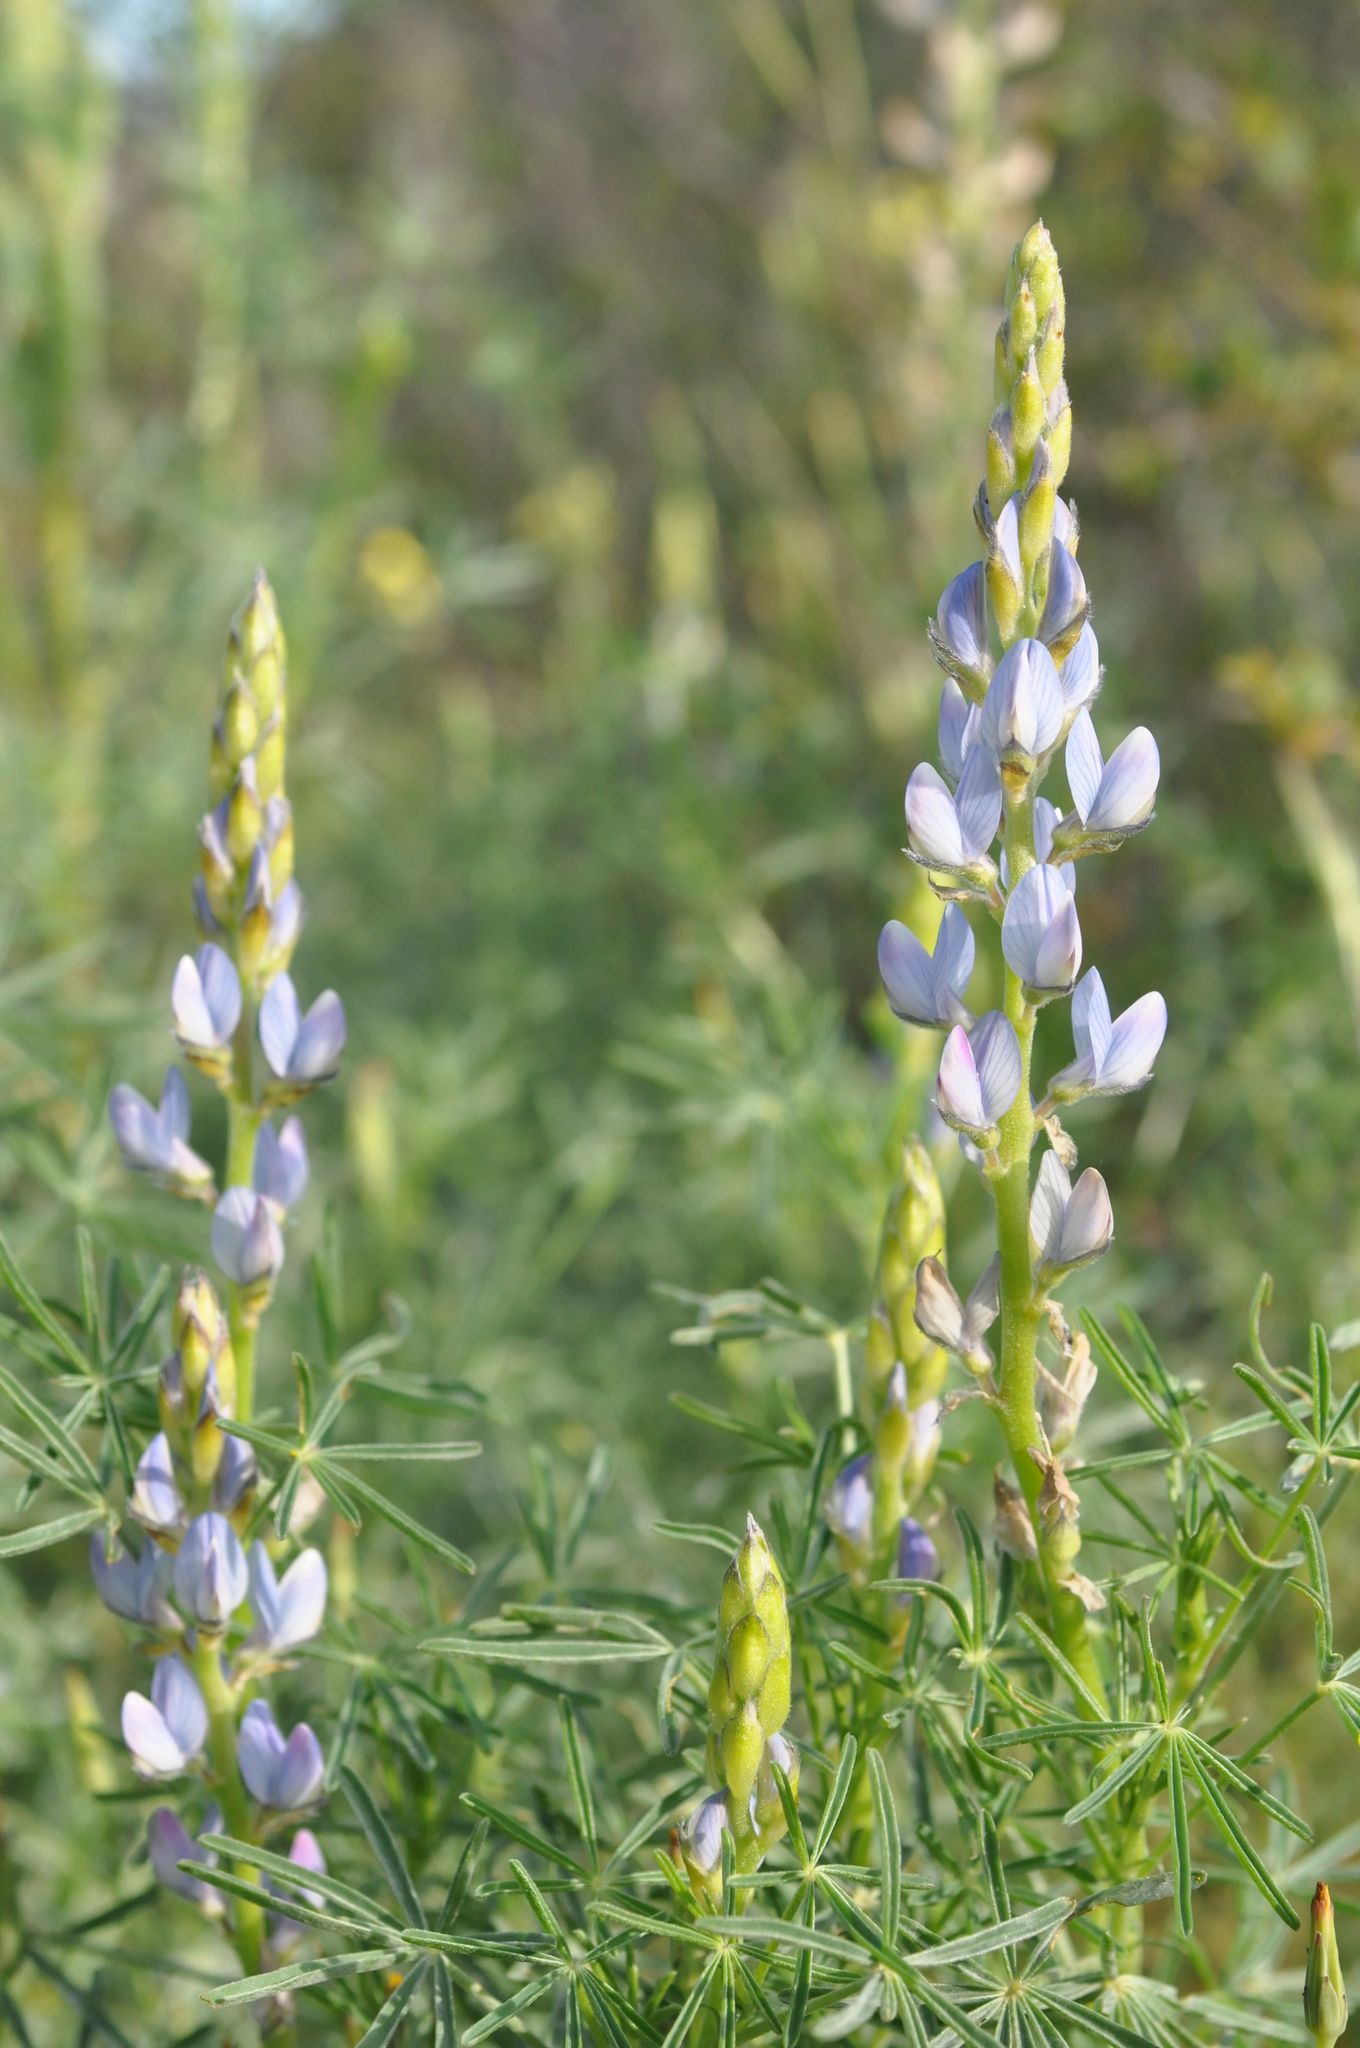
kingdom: Plantae
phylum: Tracheophyta
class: Magnoliopsida
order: Fabales
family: Fabaceae
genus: Lupinus
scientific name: Lupinus angustifolius
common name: Narrow-leaved lupin
